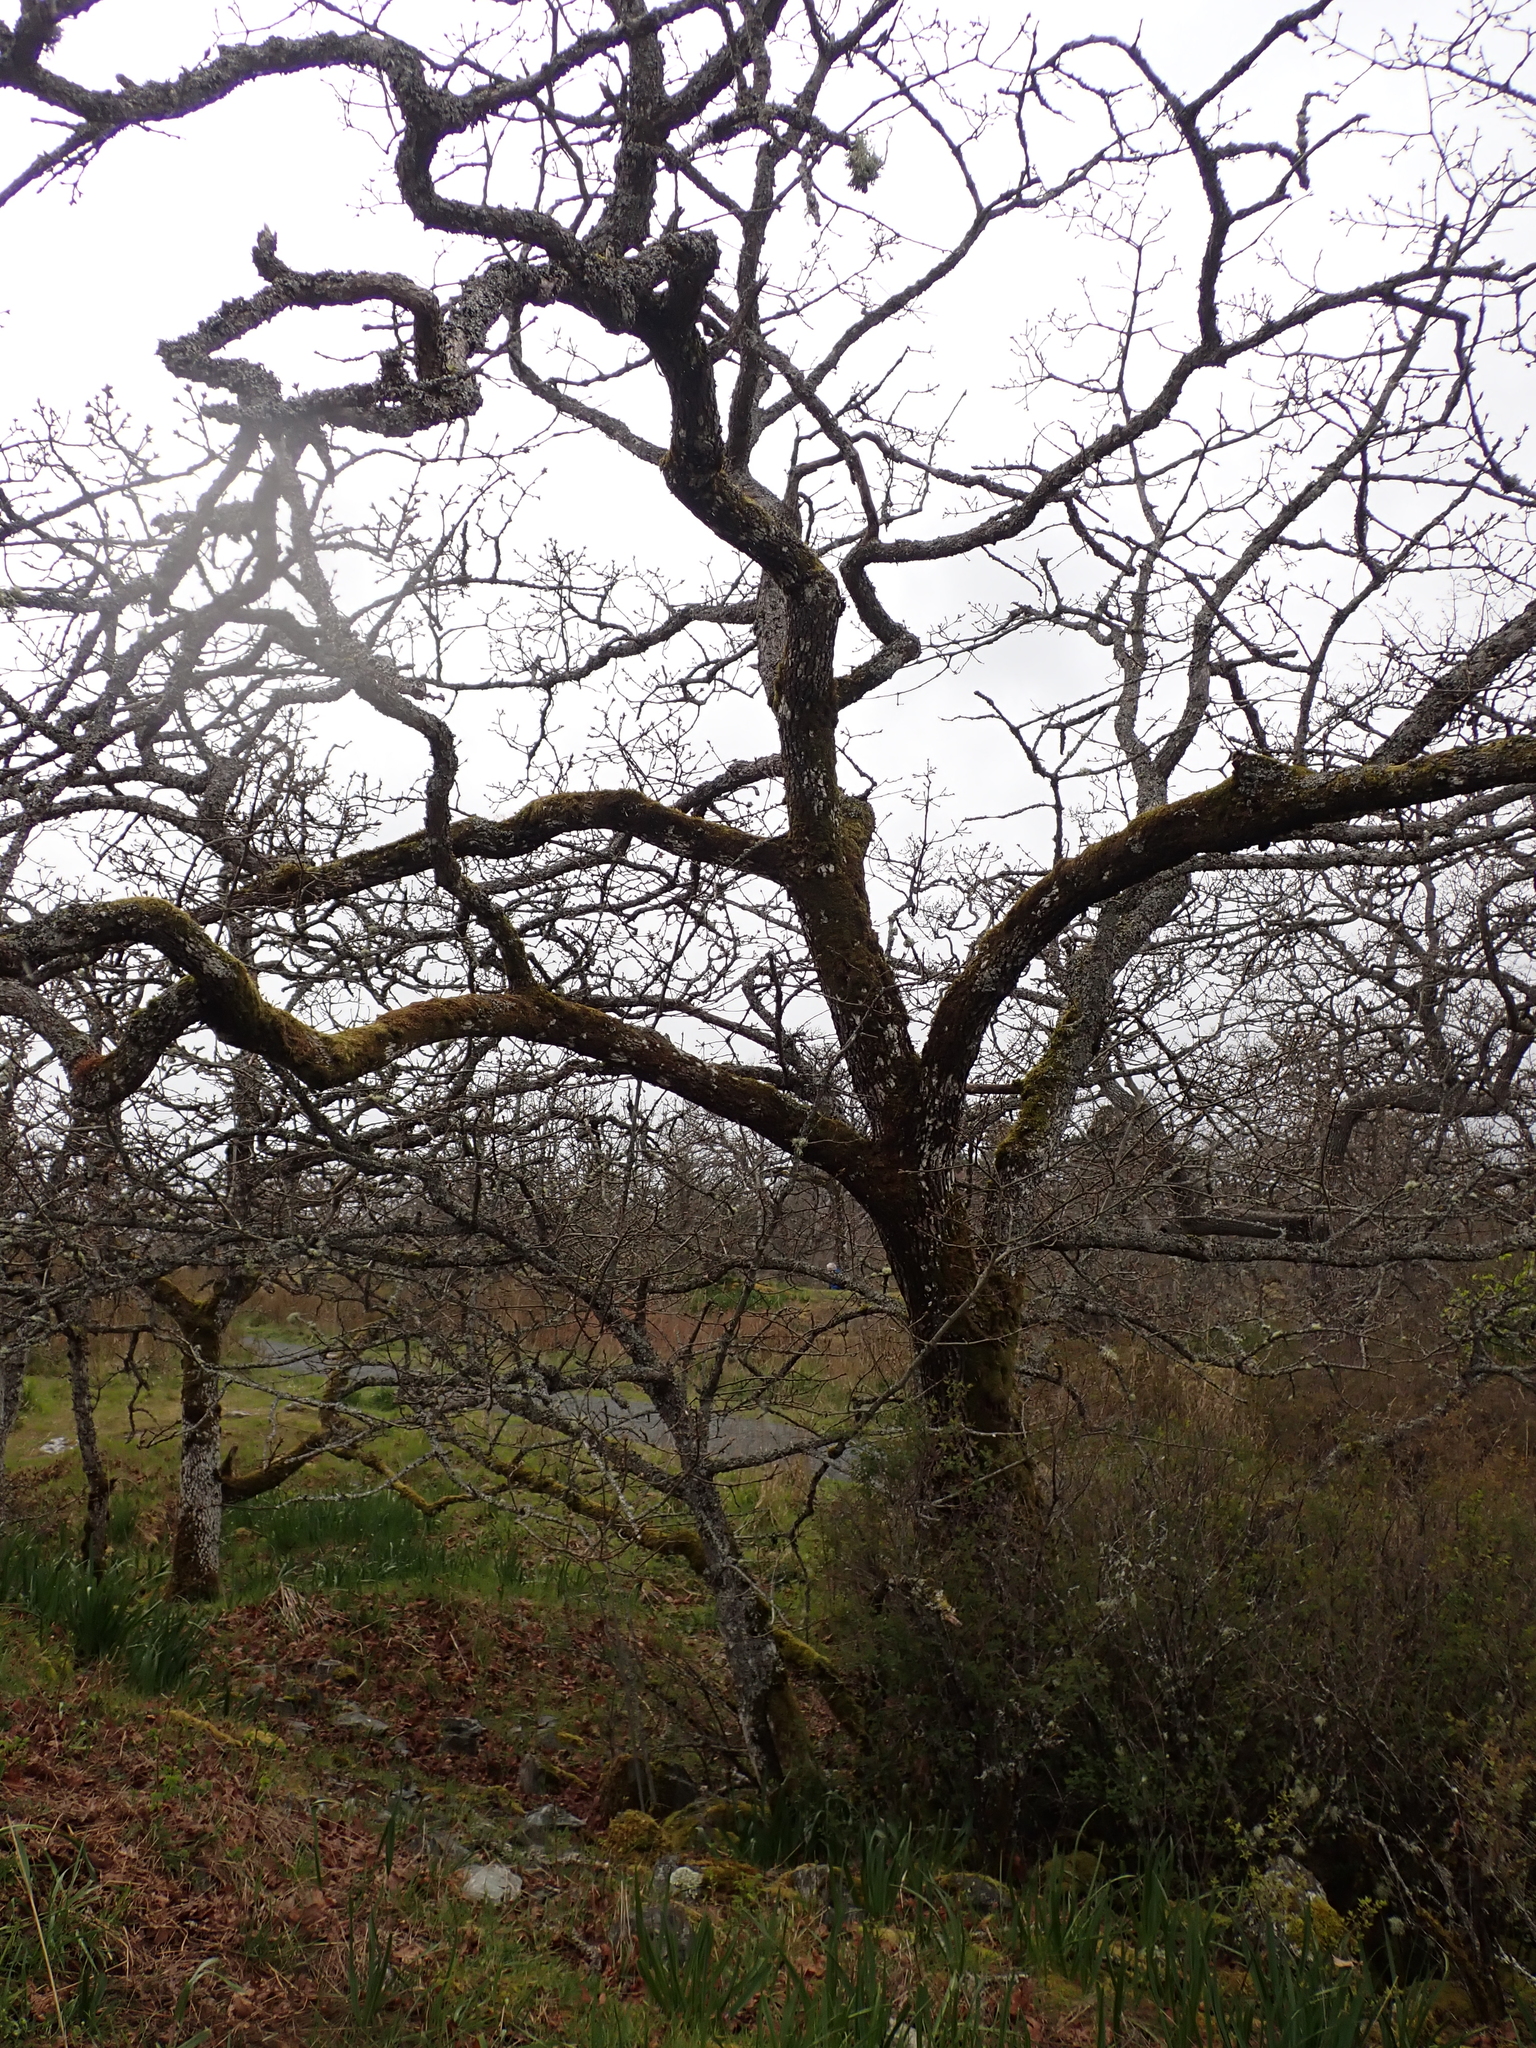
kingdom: Plantae
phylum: Tracheophyta
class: Magnoliopsida
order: Fagales
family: Fagaceae
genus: Quercus
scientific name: Quercus garryana
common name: Garry oak
